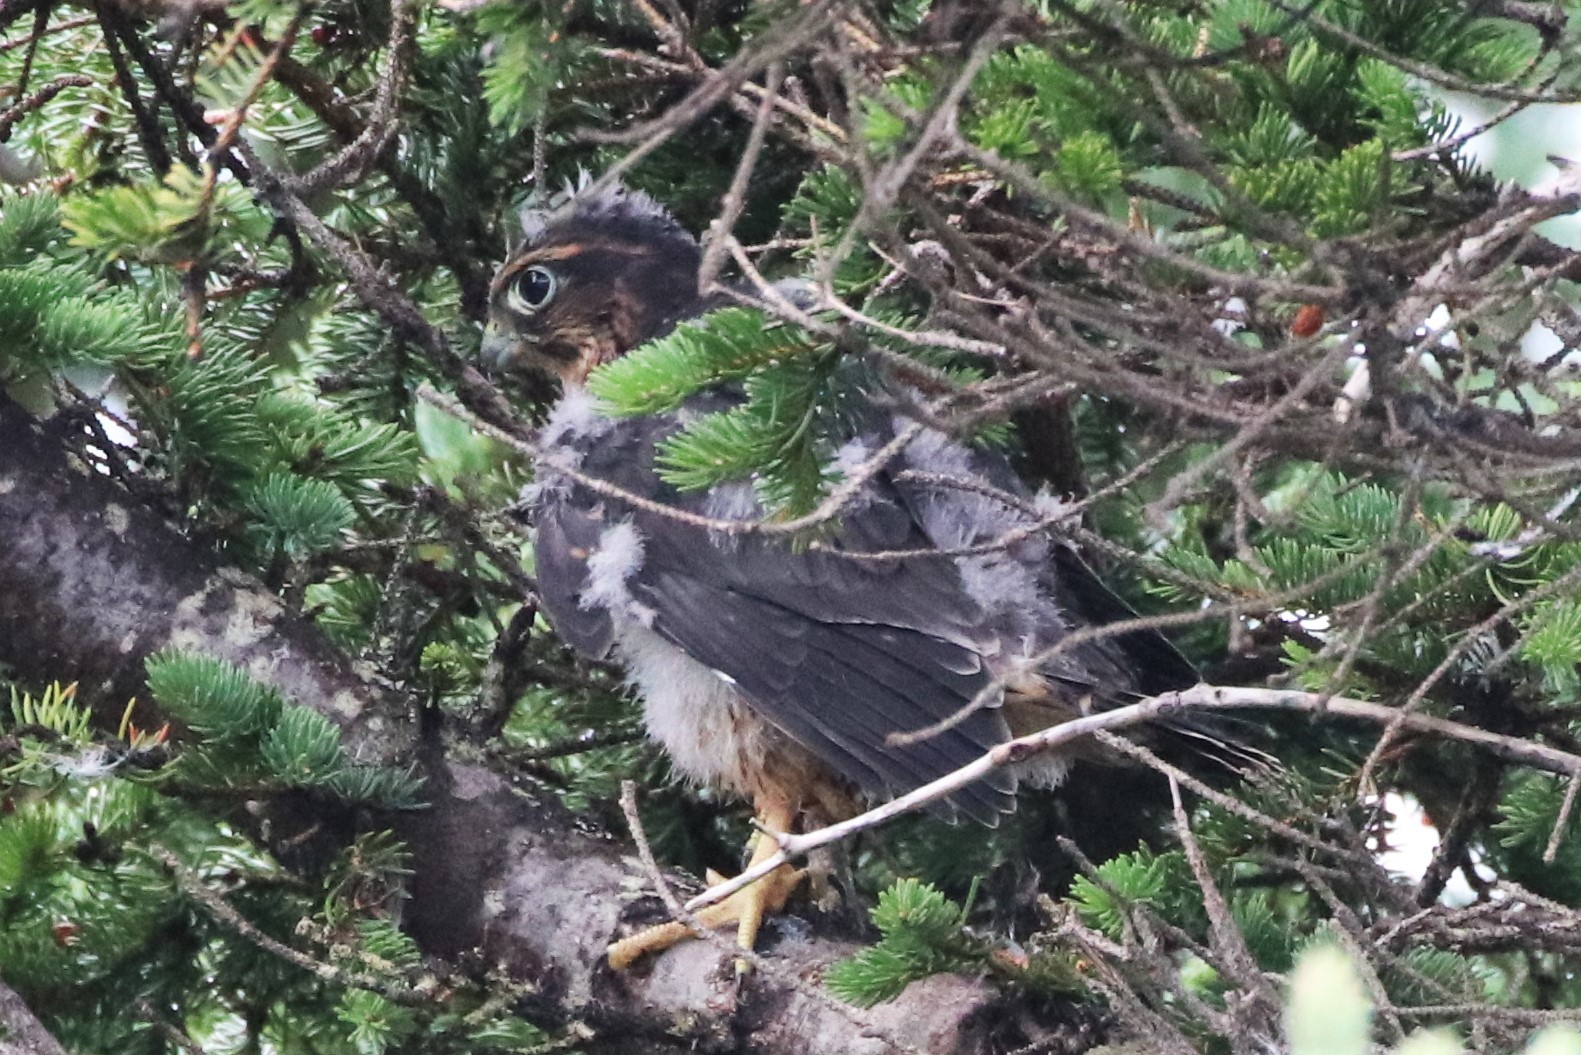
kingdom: Animalia
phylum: Chordata
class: Aves
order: Falconiformes
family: Falconidae
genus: Falco
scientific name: Falco columbarius
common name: Merlin
